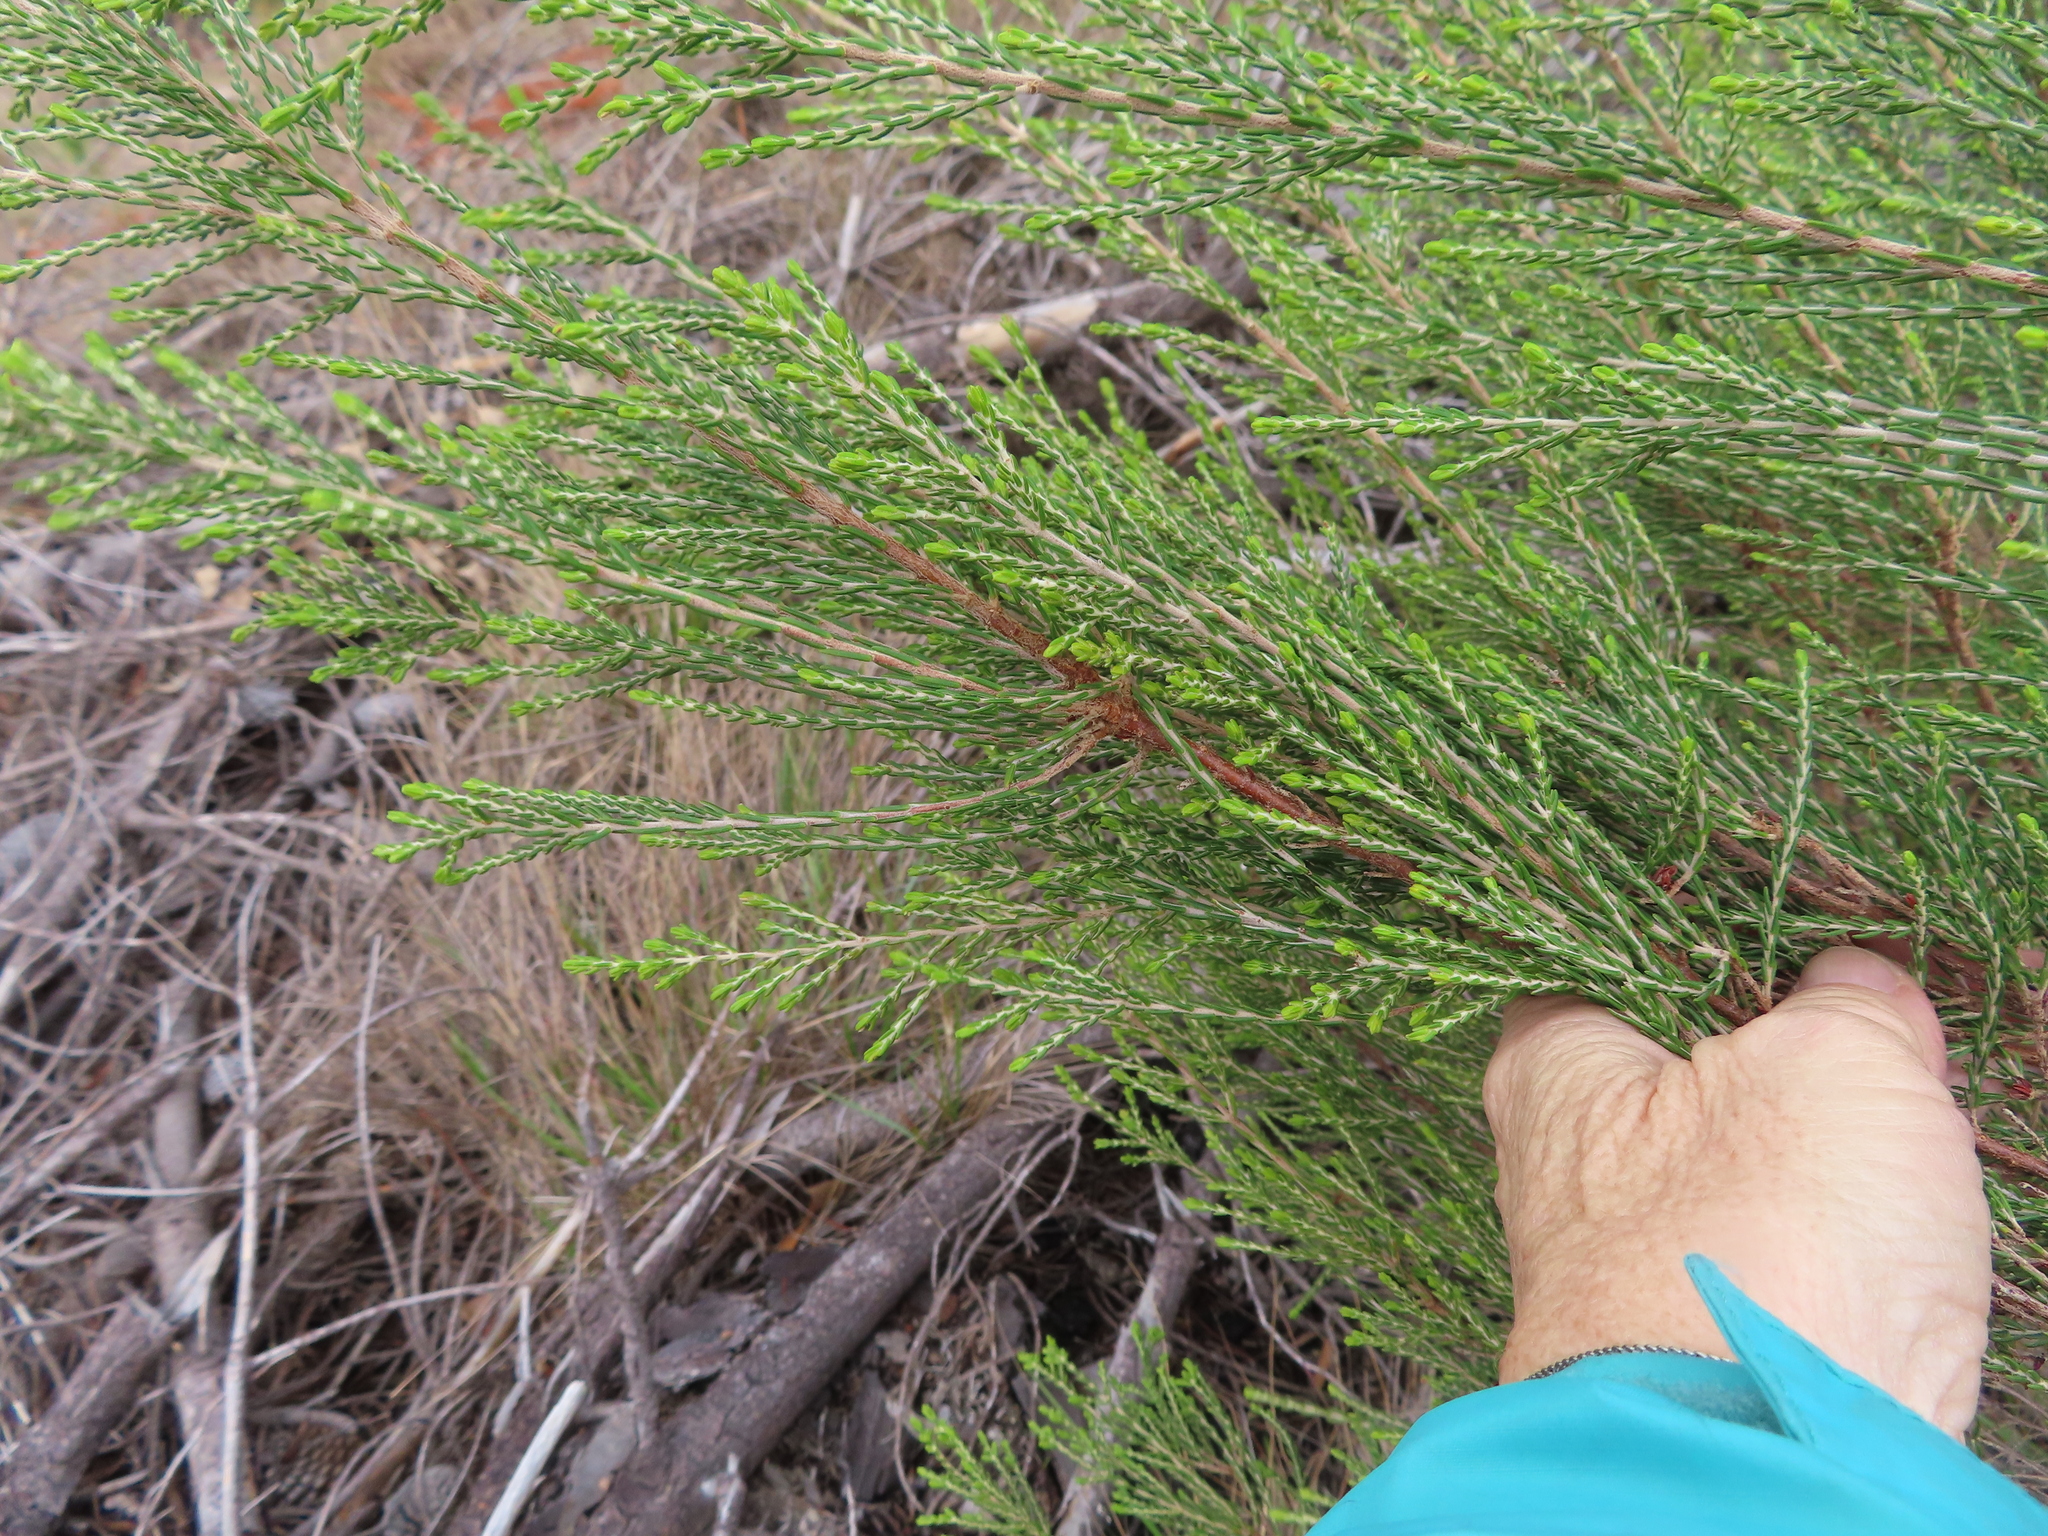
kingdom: Plantae
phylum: Tracheophyta
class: Magnoliopsida
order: Malvales
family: Thymelaeaceae
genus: Passerina
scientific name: Passerina corymbosa
